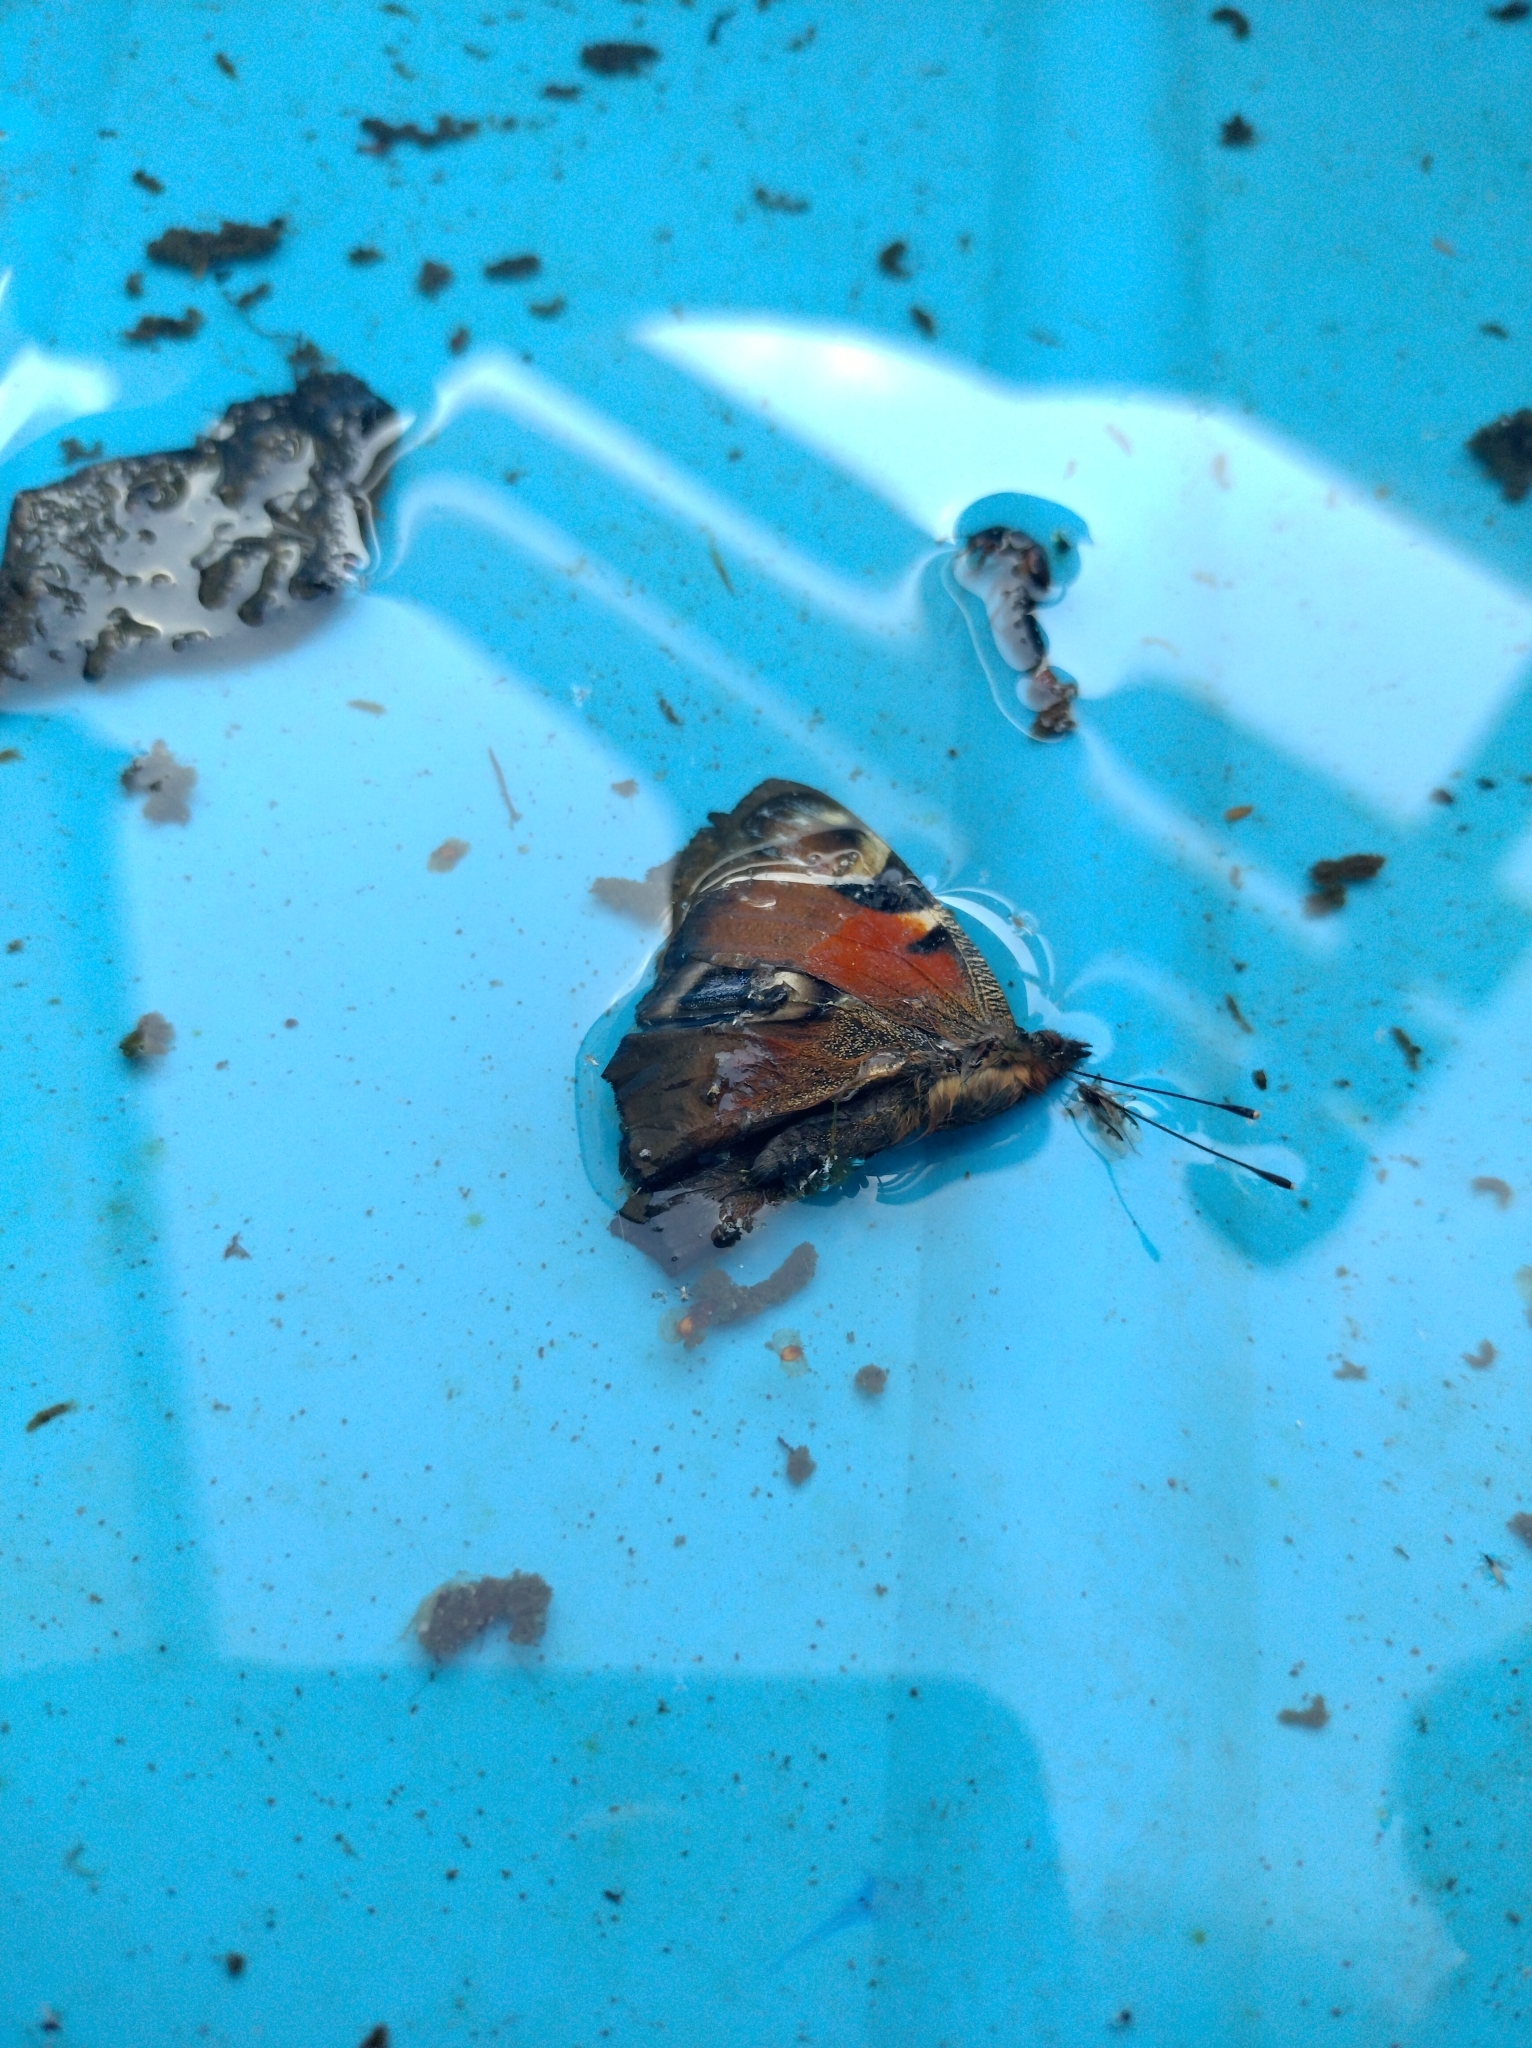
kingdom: Animalia
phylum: Arthropoda
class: Insecta
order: Lepidoptera
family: Nymphalidae
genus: Aglais
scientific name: Aglais io
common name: Peacock
